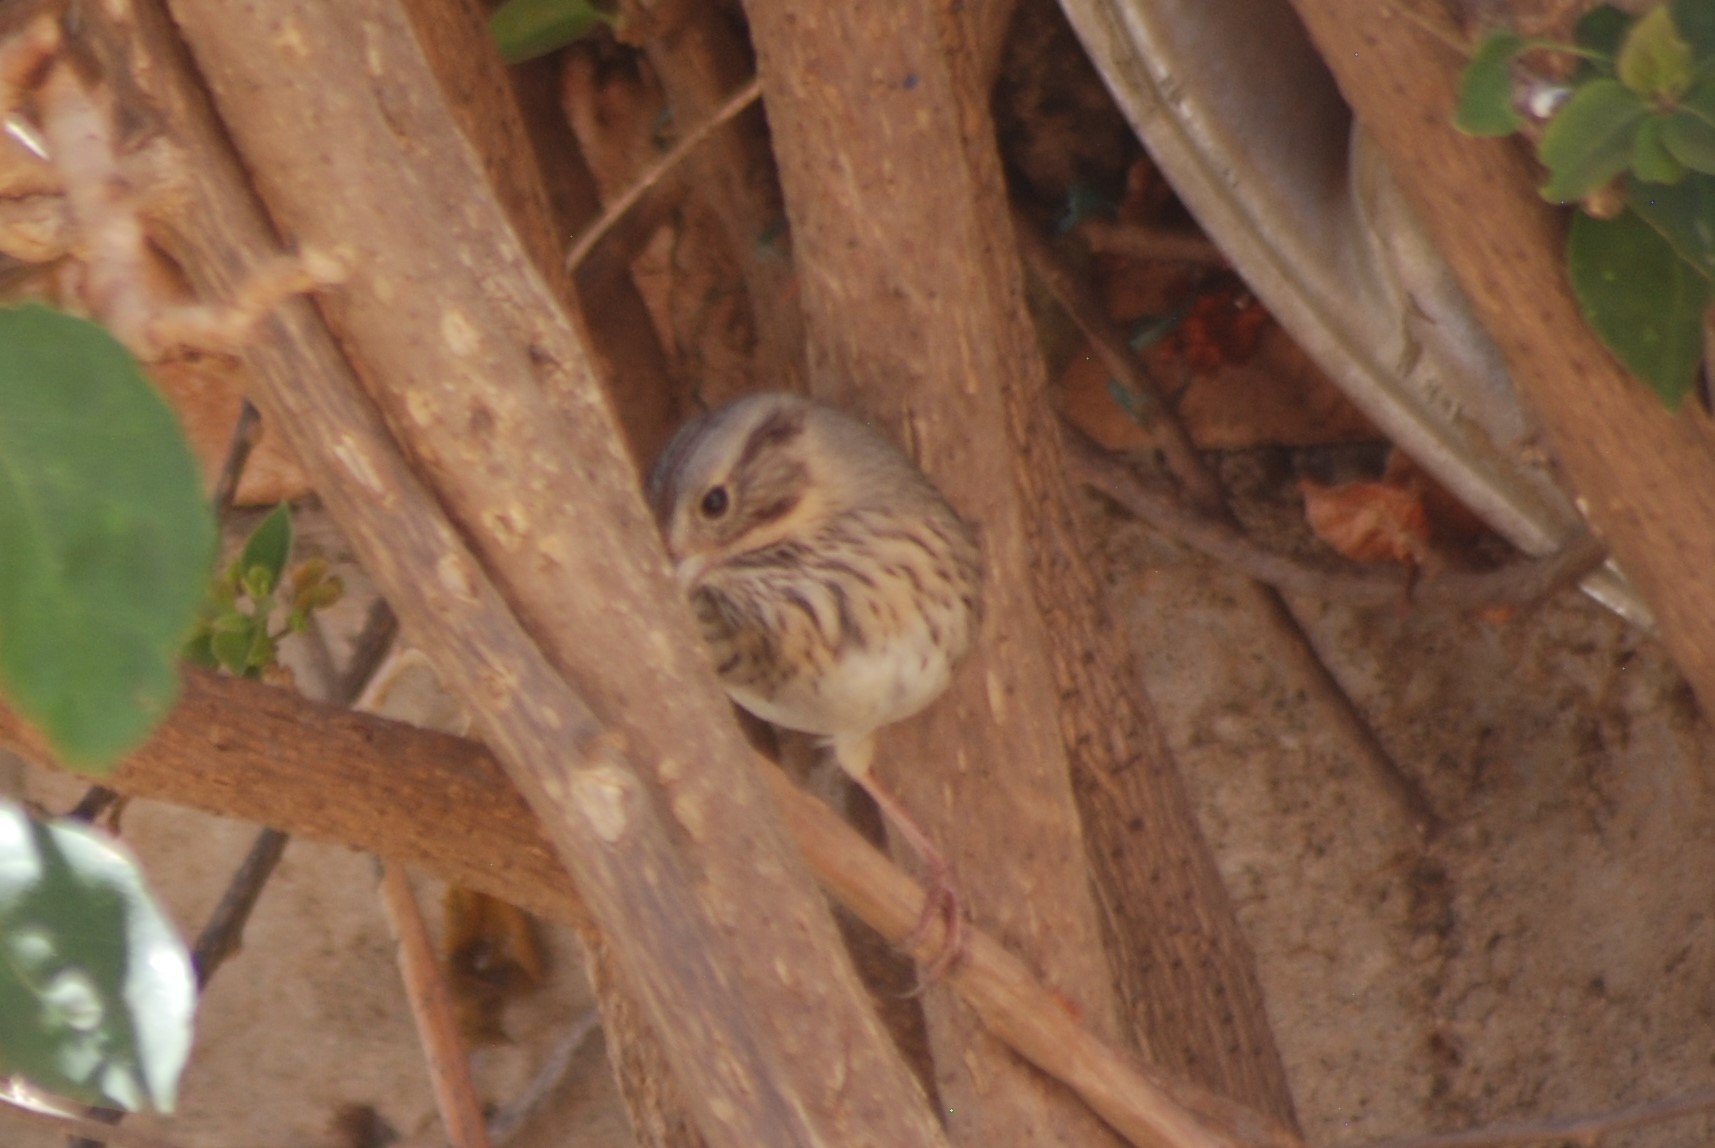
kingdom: Animalia
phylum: Chordata
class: Aves
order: Passeriformes
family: Passerellidae
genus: Melospiza
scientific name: Melospiza lincolnii
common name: Lincoln's sparrow
